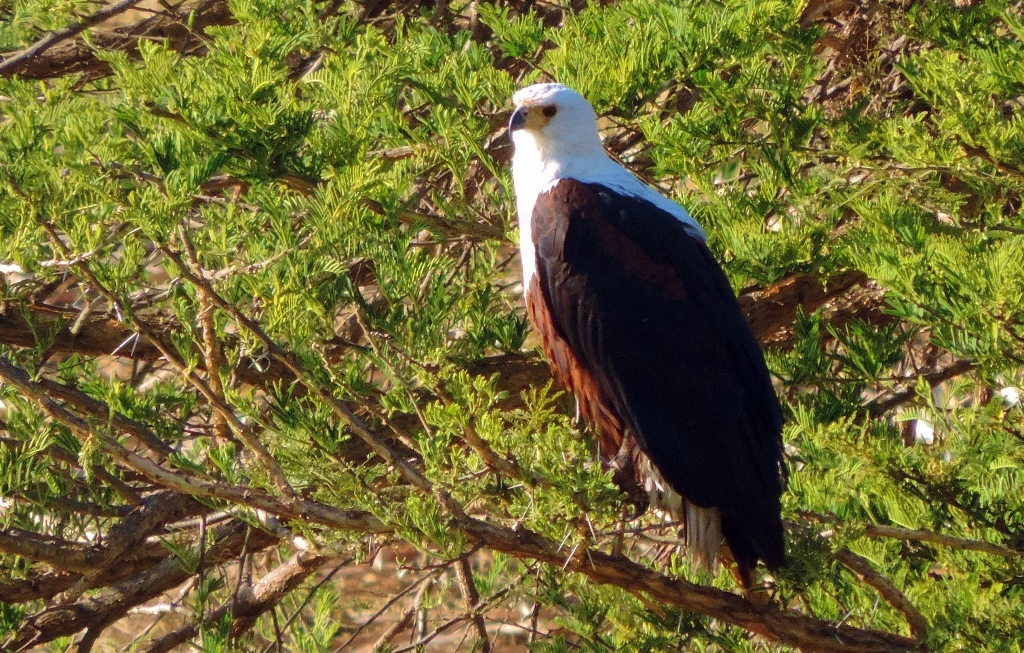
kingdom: Animalia
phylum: Chordata
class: Aves
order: Accipitriformes
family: Accipitridae
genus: Haliaeetus
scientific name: Haliaeetus vocifer
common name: African fish eagle
